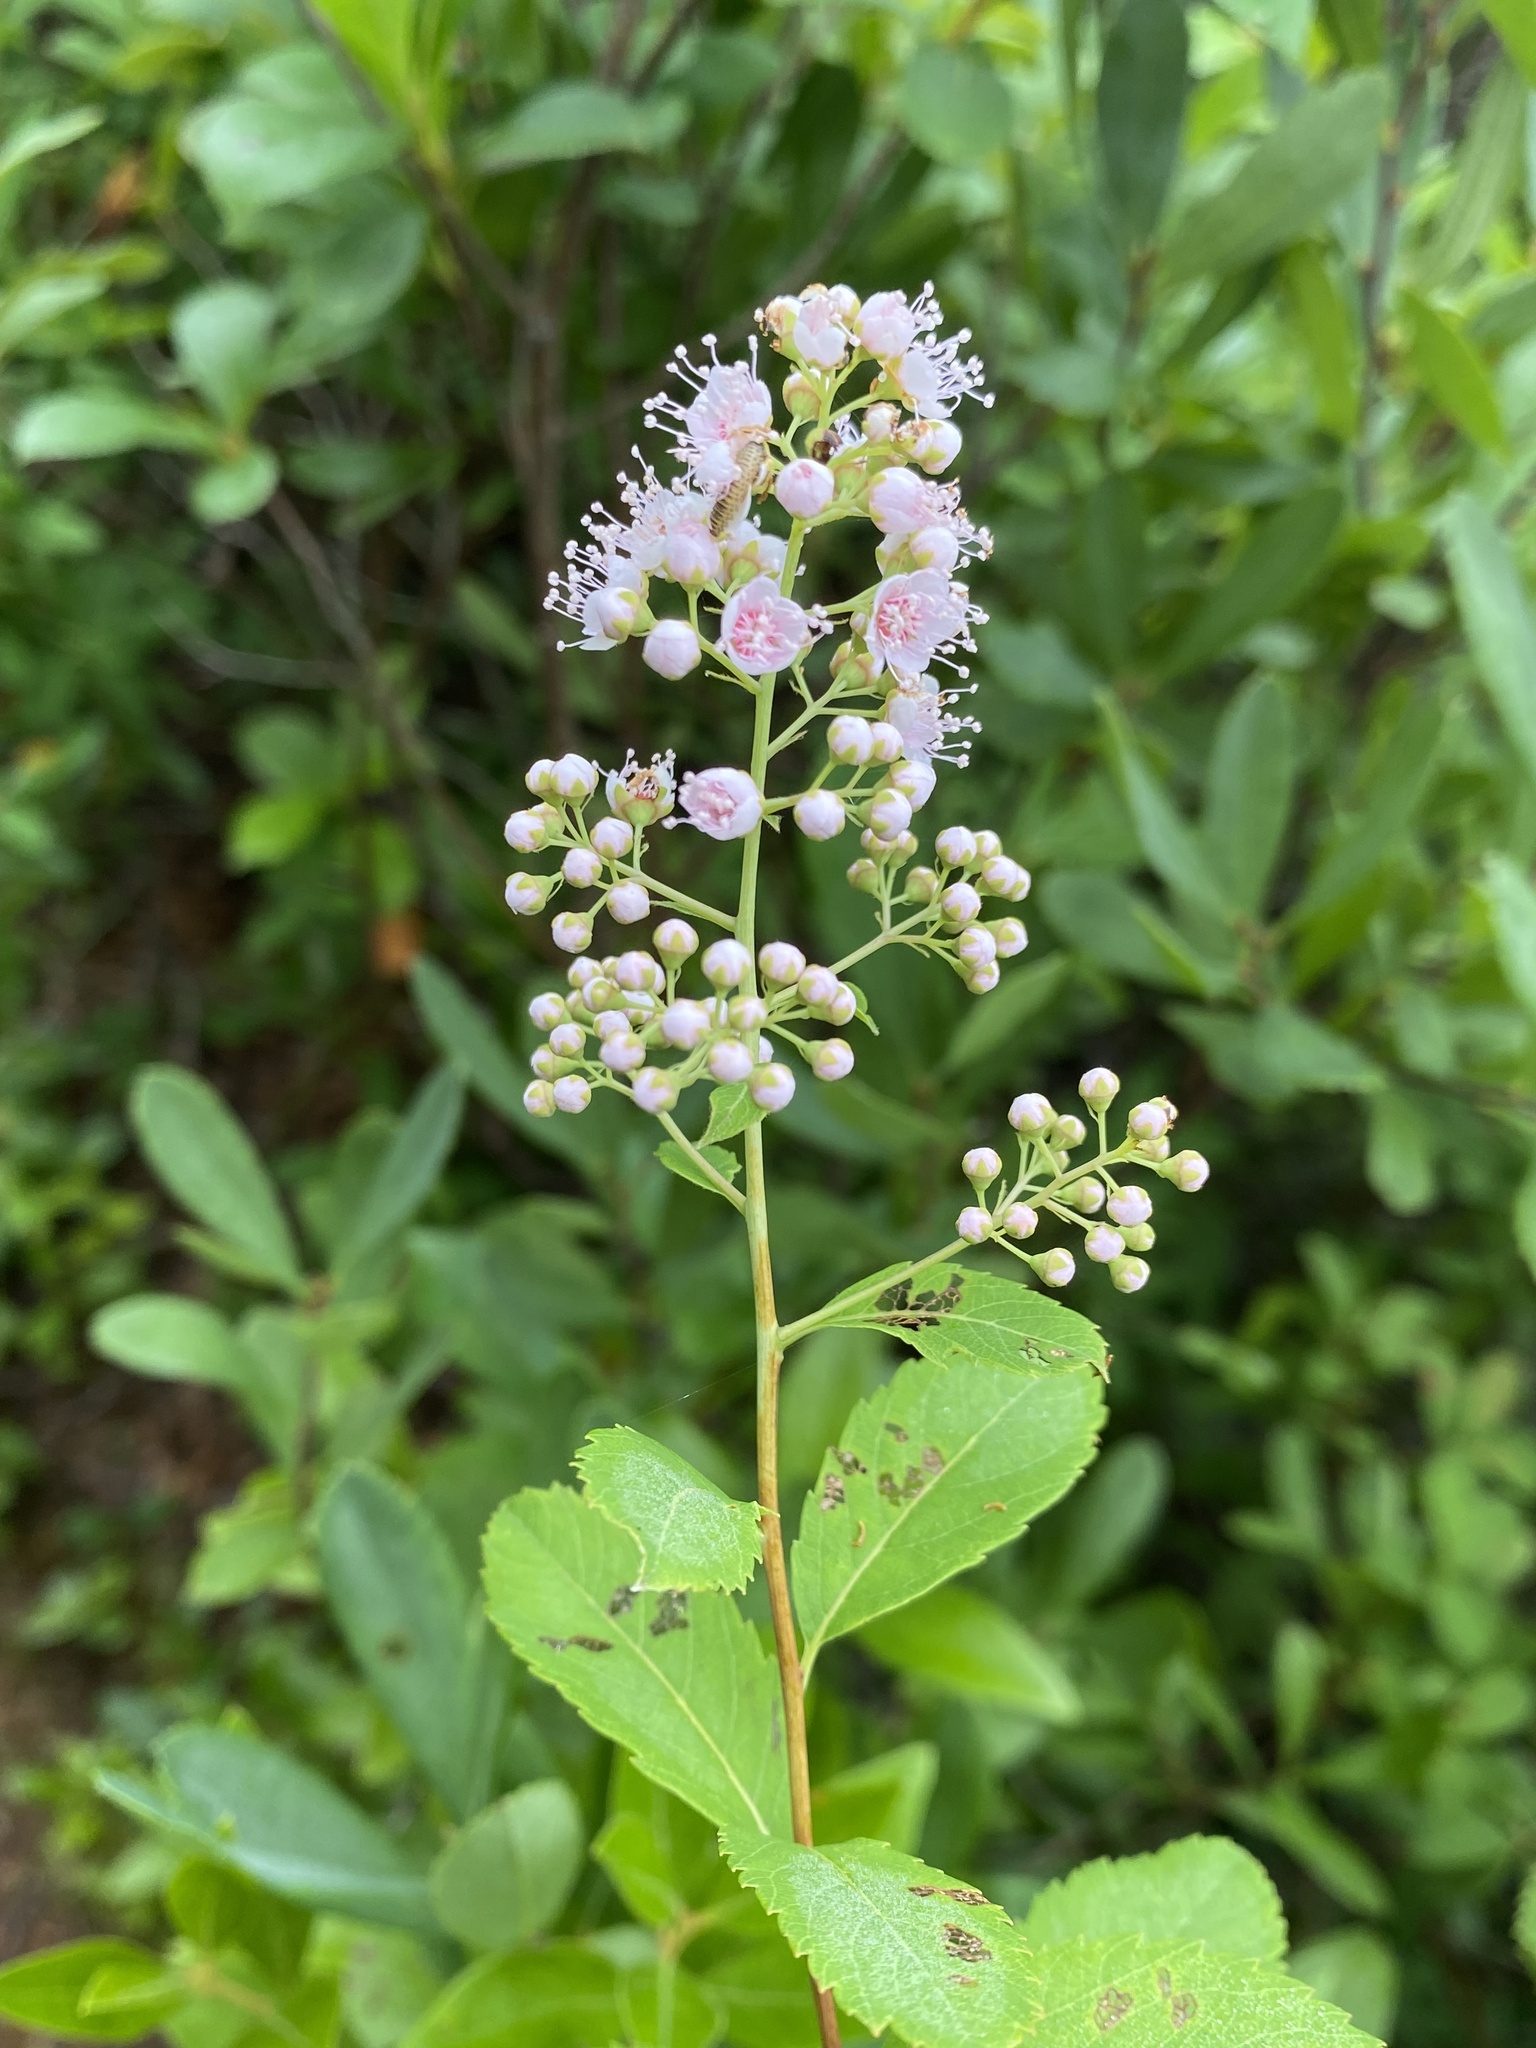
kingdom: Plantae
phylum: Tracheophyta
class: Magnoliopsida
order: Rosales
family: Rosaceae
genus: Spiraea
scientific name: Spiraea alba
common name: Pale bridewort
